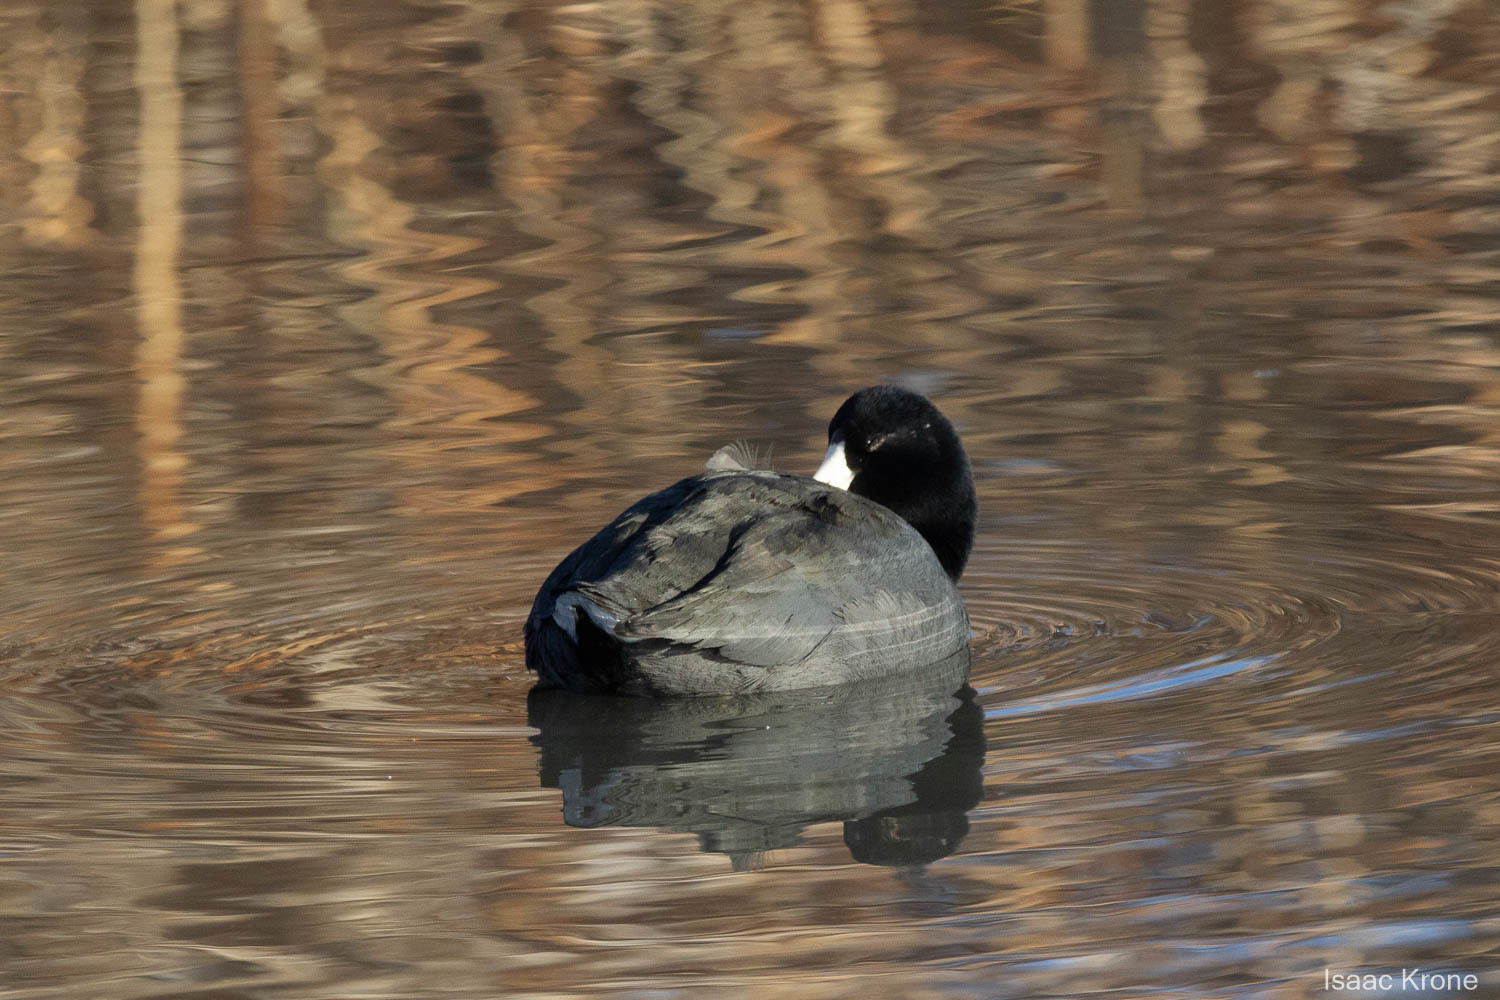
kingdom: Animalia
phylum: Chordata
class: Aves
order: Gruiformes
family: Rallidae
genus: Fulica
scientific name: Fulica americana
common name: American coot
